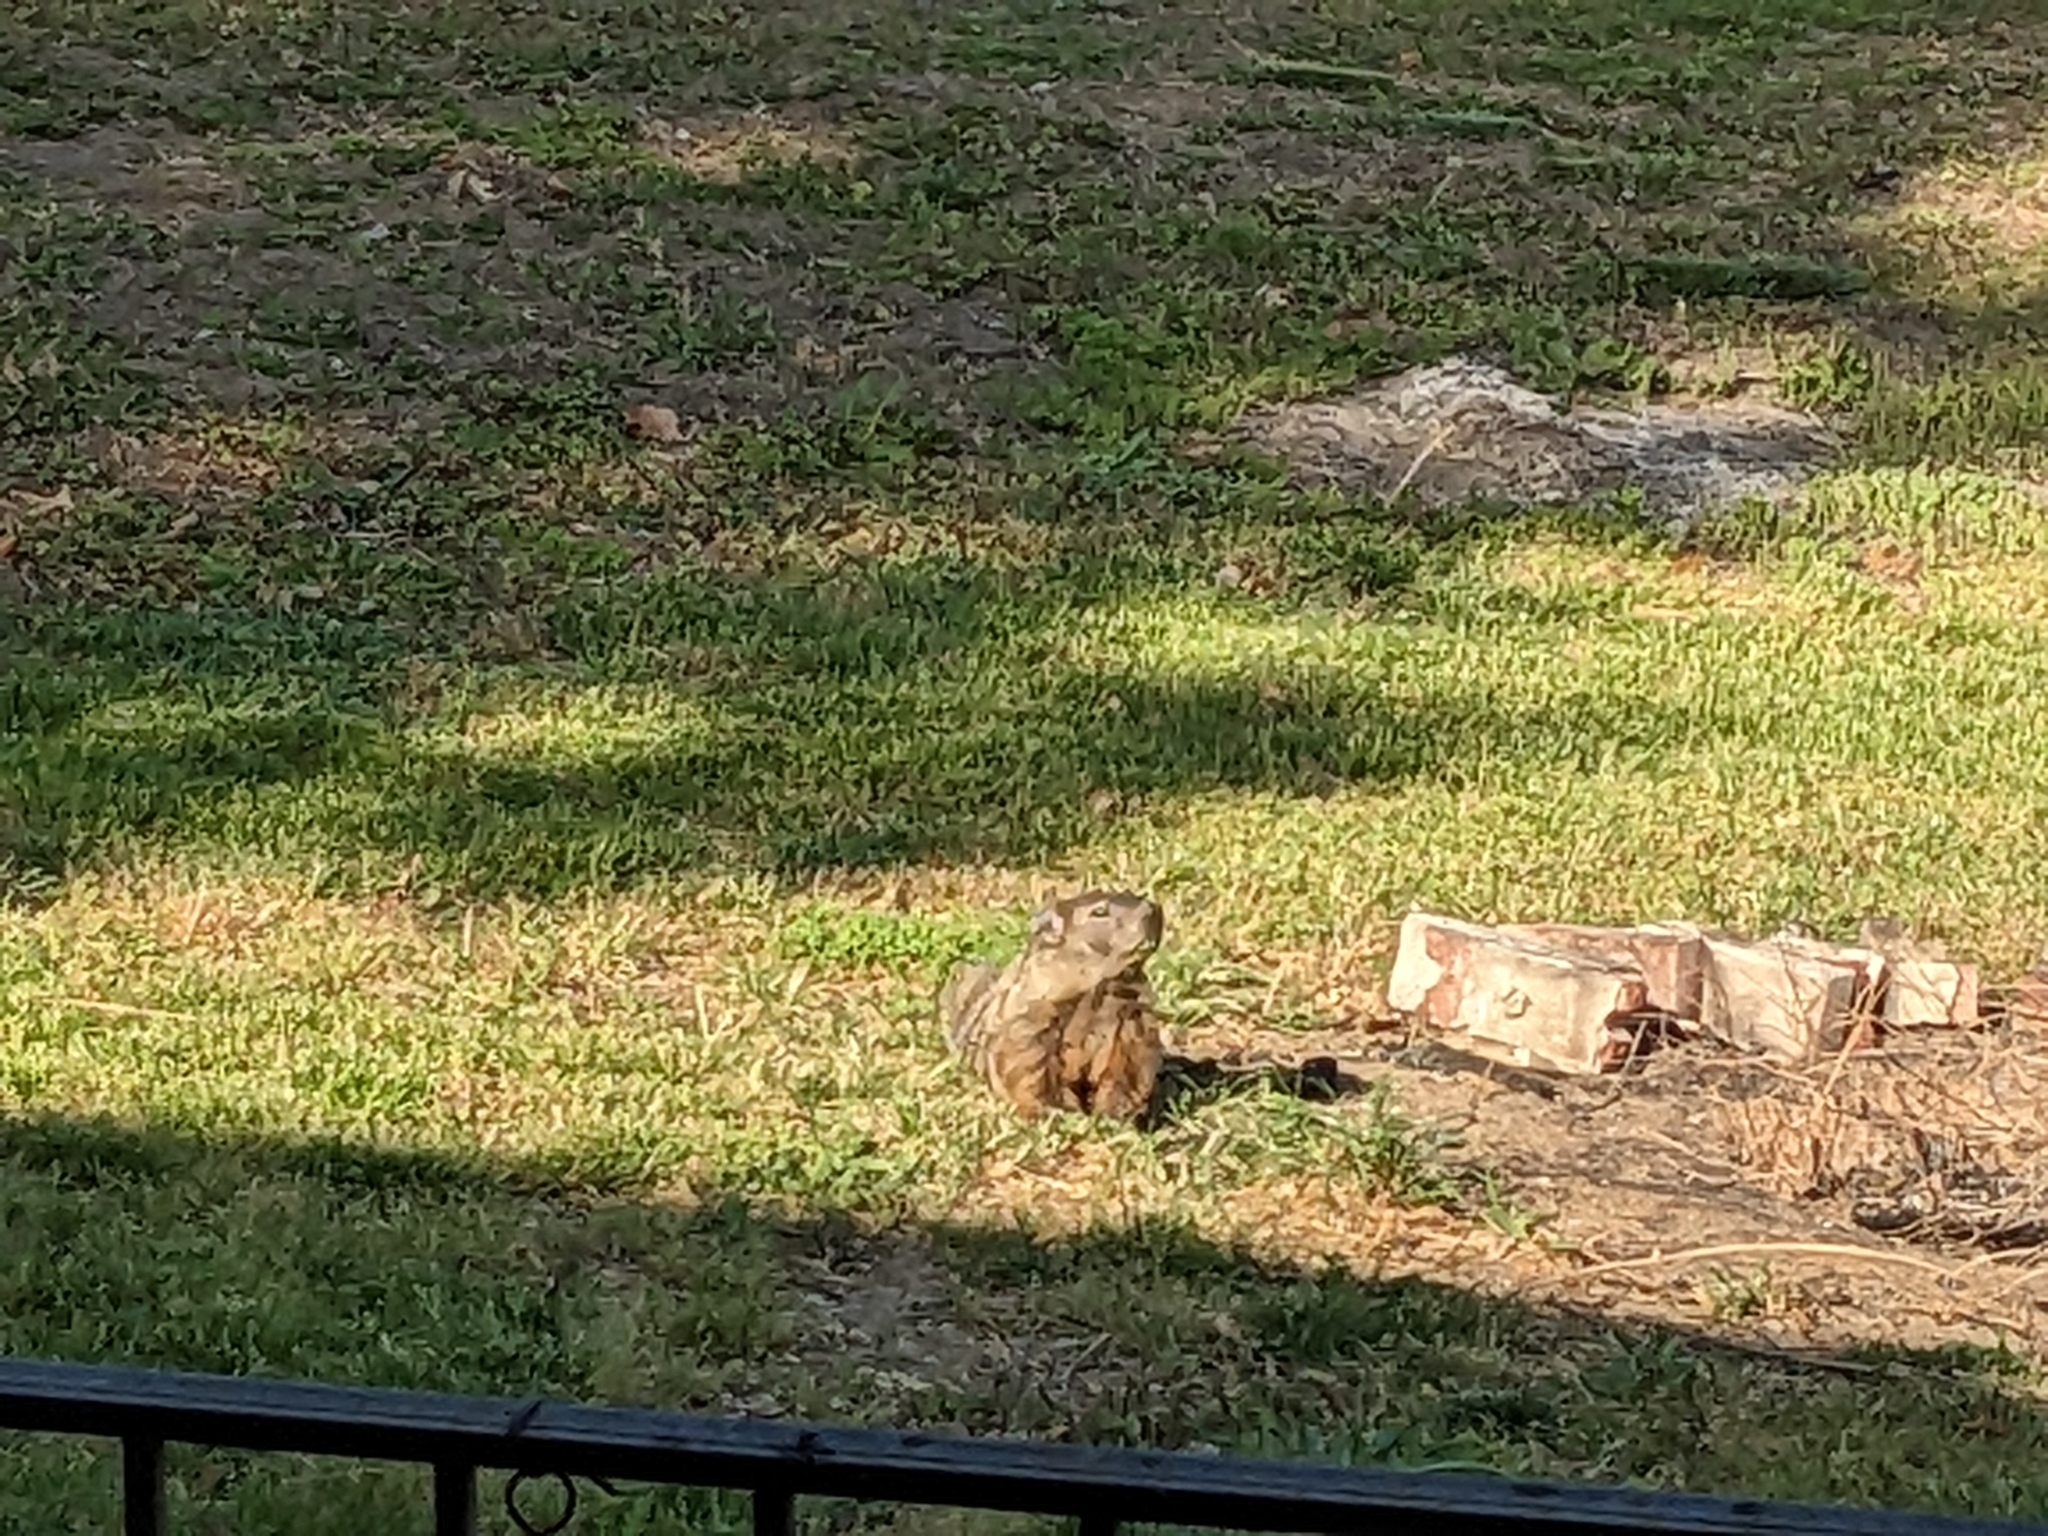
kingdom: Animalia
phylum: Chordata
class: Mammalia
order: Rodentia
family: Sciuridae
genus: Marmota
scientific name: Marmota monax
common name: Groundhog
